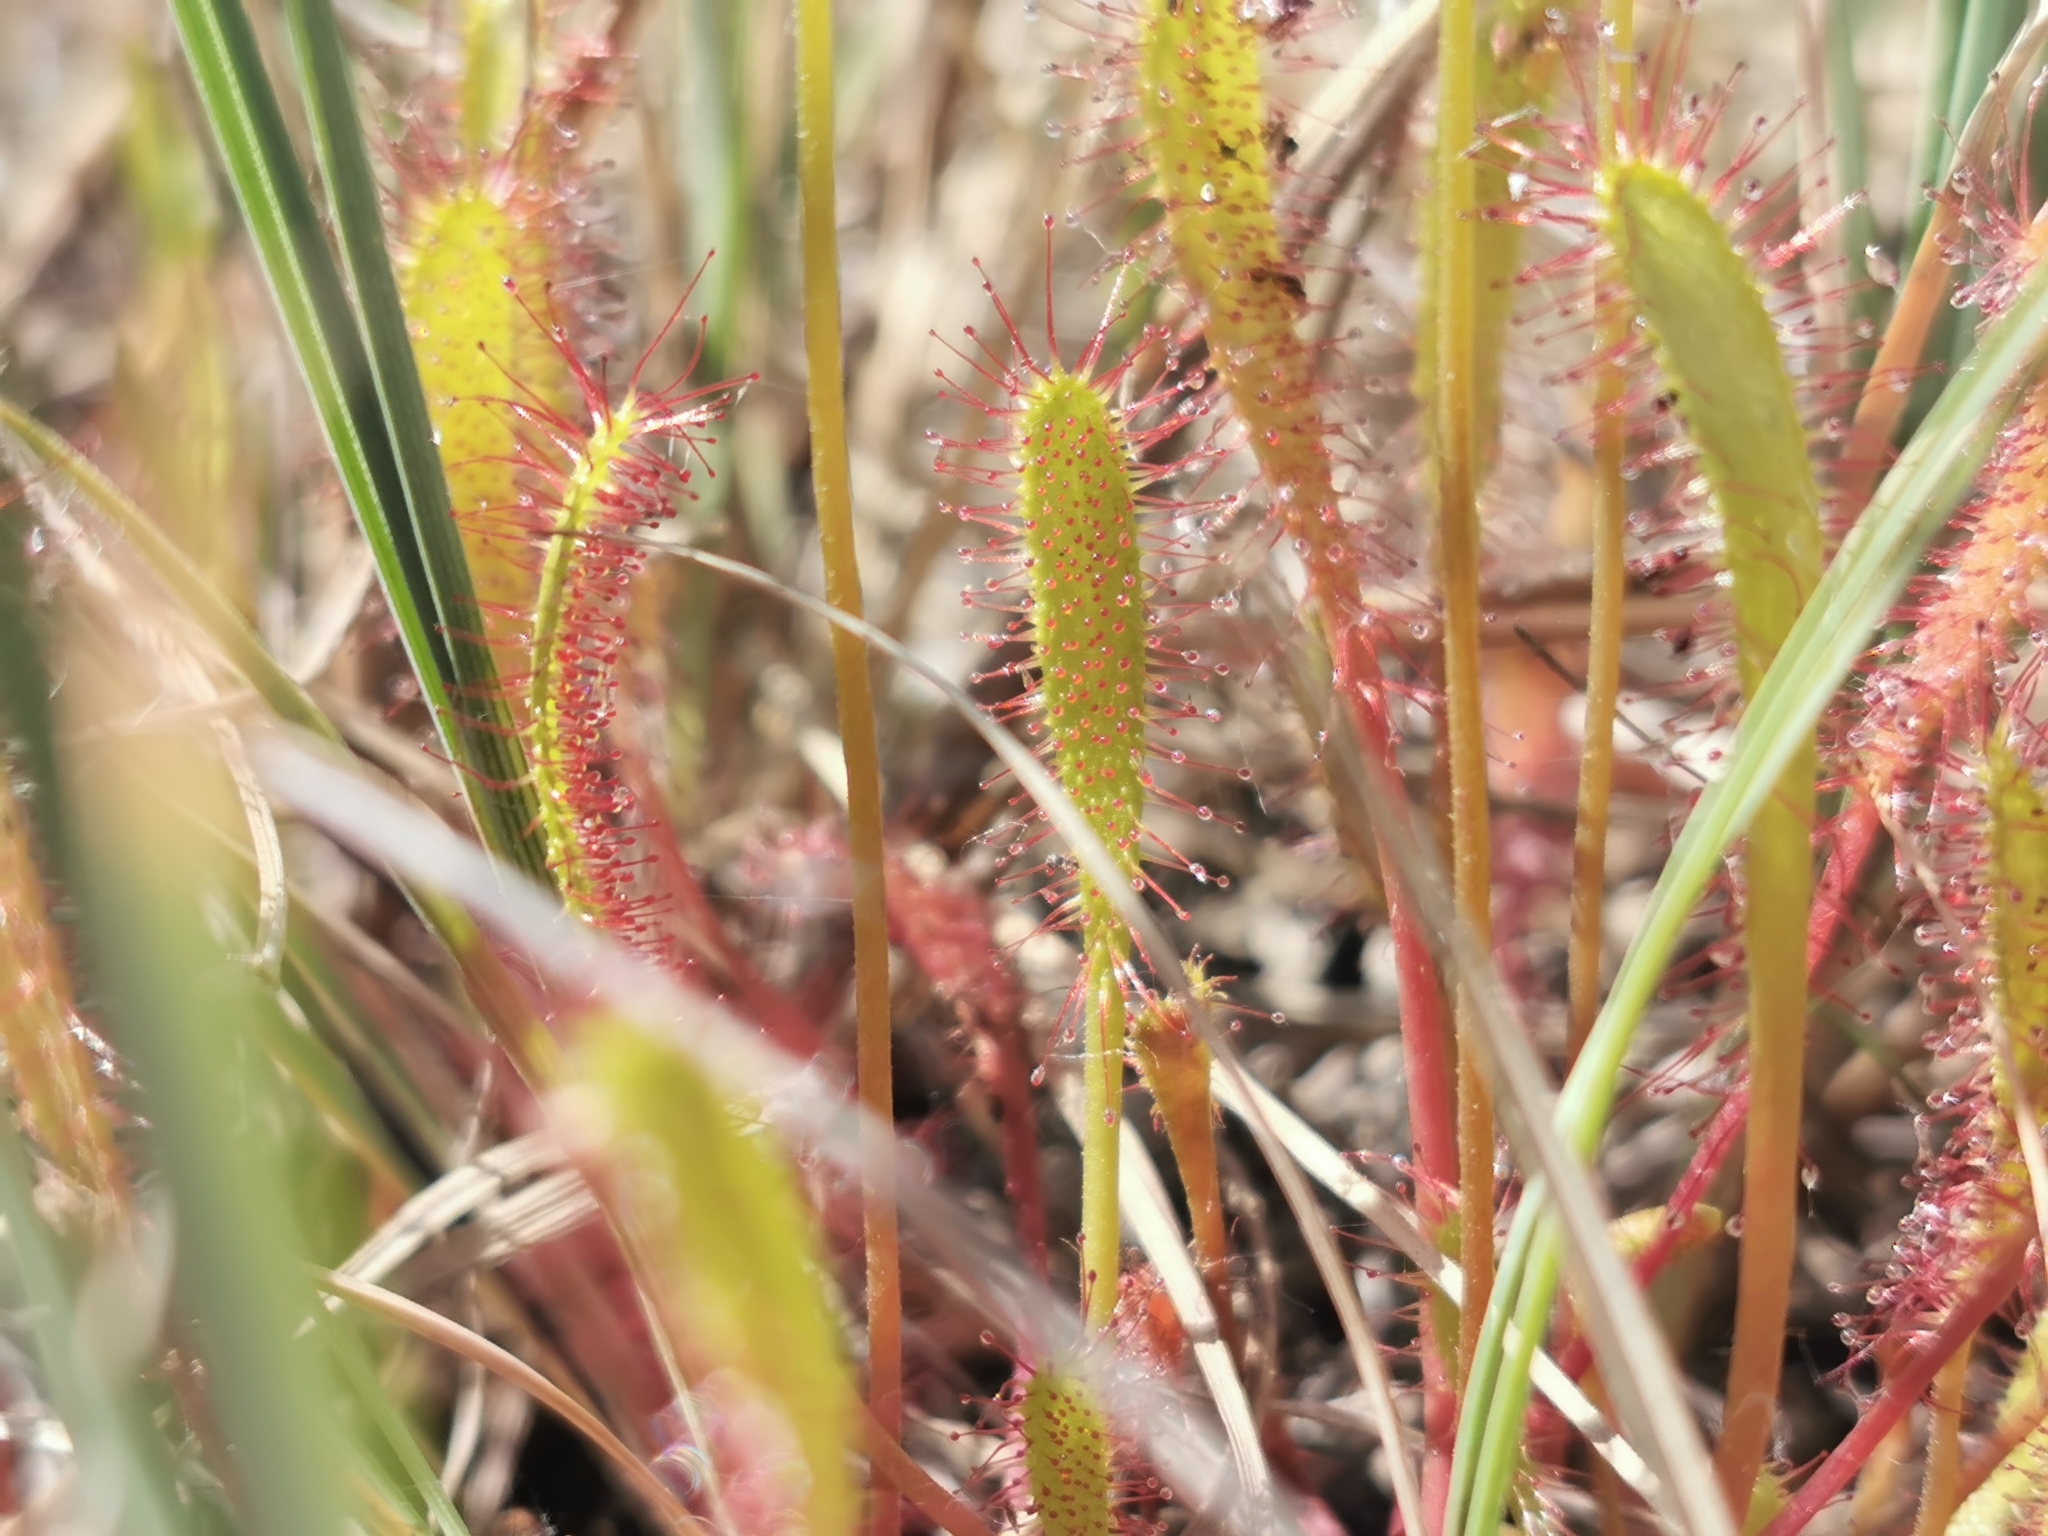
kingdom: Plantae
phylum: Tracheophyta
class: Magnoliopsida
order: Caryophyllales
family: Droseraceae
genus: Drosera
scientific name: Drosera anglica
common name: Great sundew
